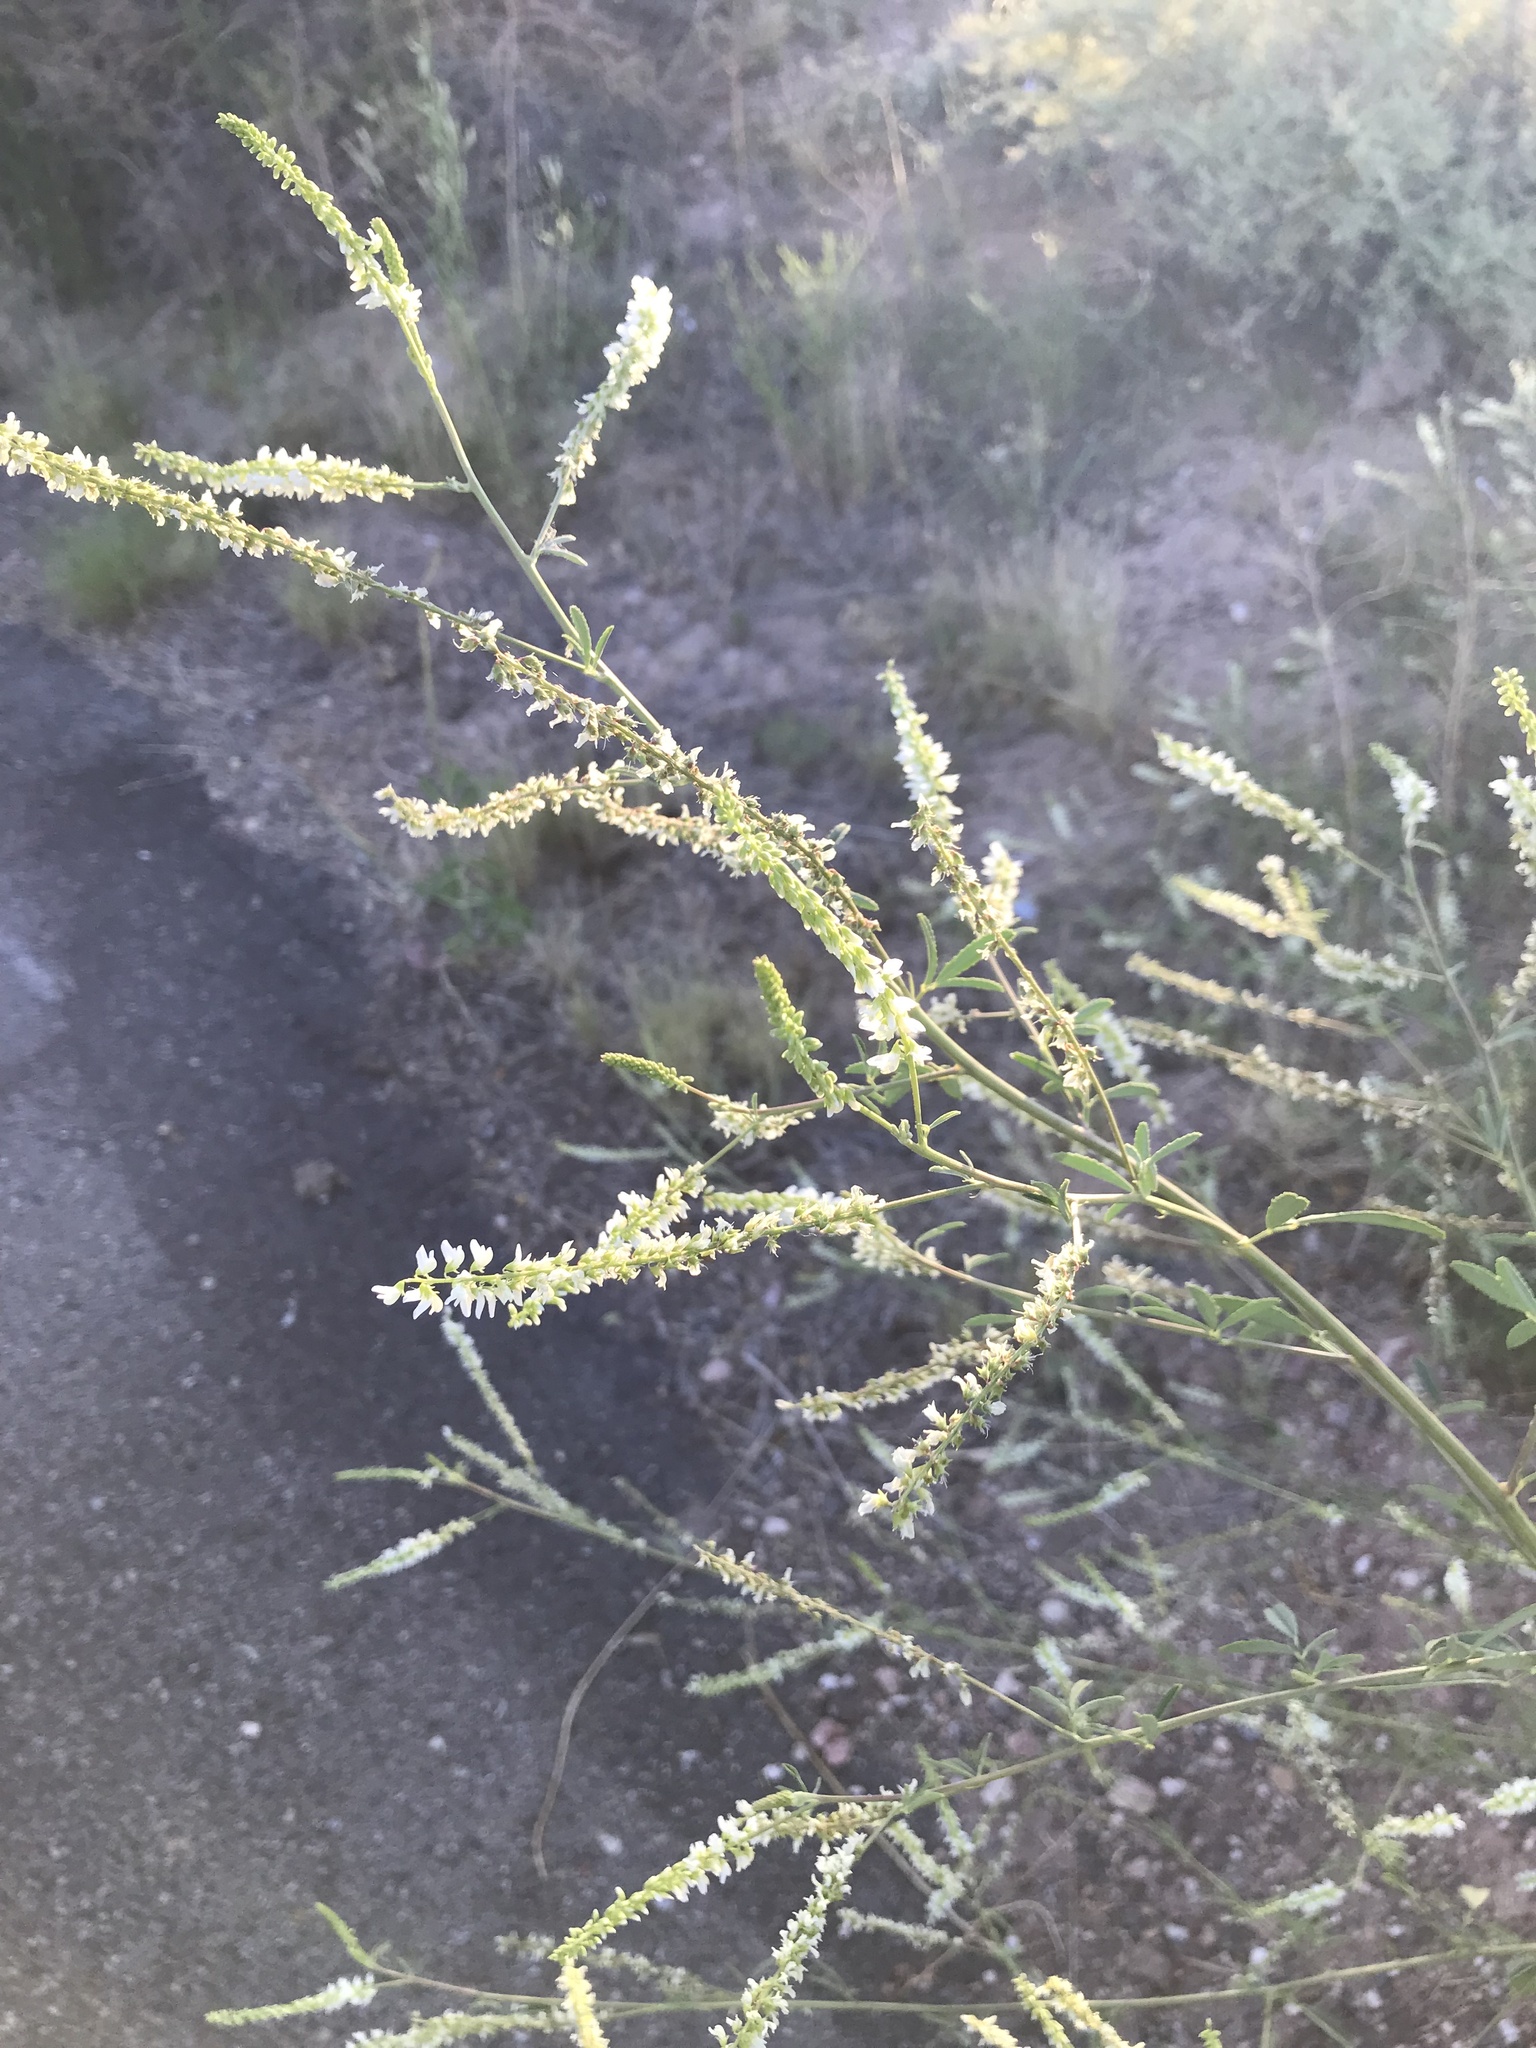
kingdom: Plantae
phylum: Tracheophyta
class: Magnoliopsida
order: Fabales
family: Fabaceae
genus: Melilotus
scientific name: Melilotus albus
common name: White melilot
